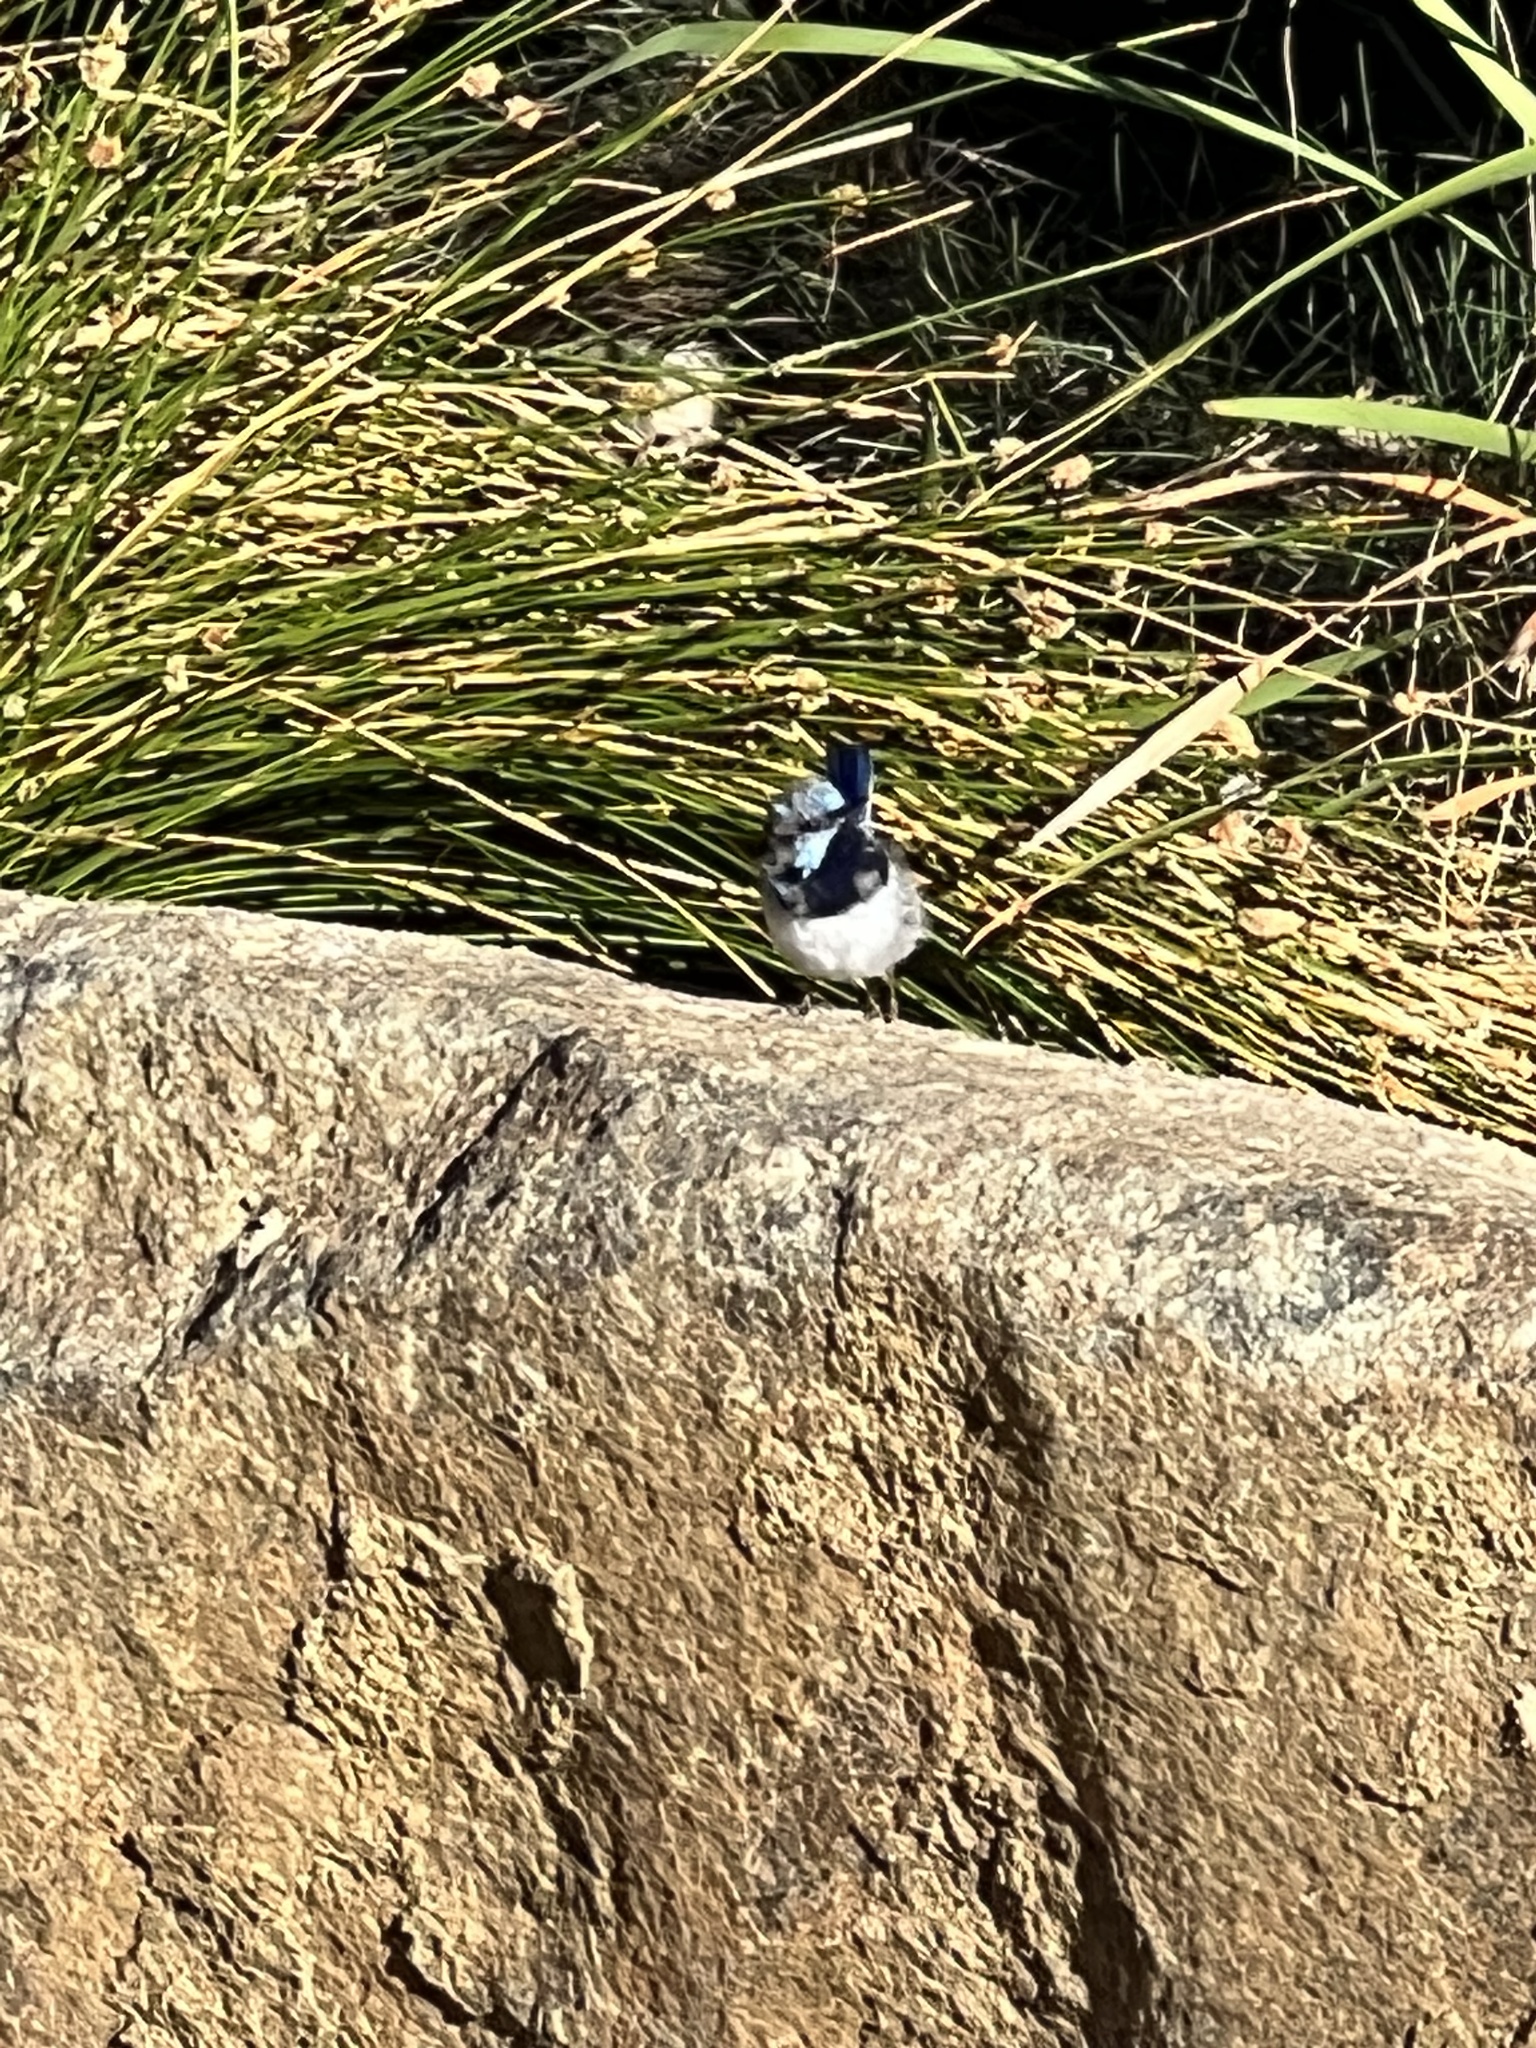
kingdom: Animalia
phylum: Chordata
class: Aves
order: Passeriformes
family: Maluridae
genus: Malurus
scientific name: Malurus cyaneus
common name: Superb fairywren
